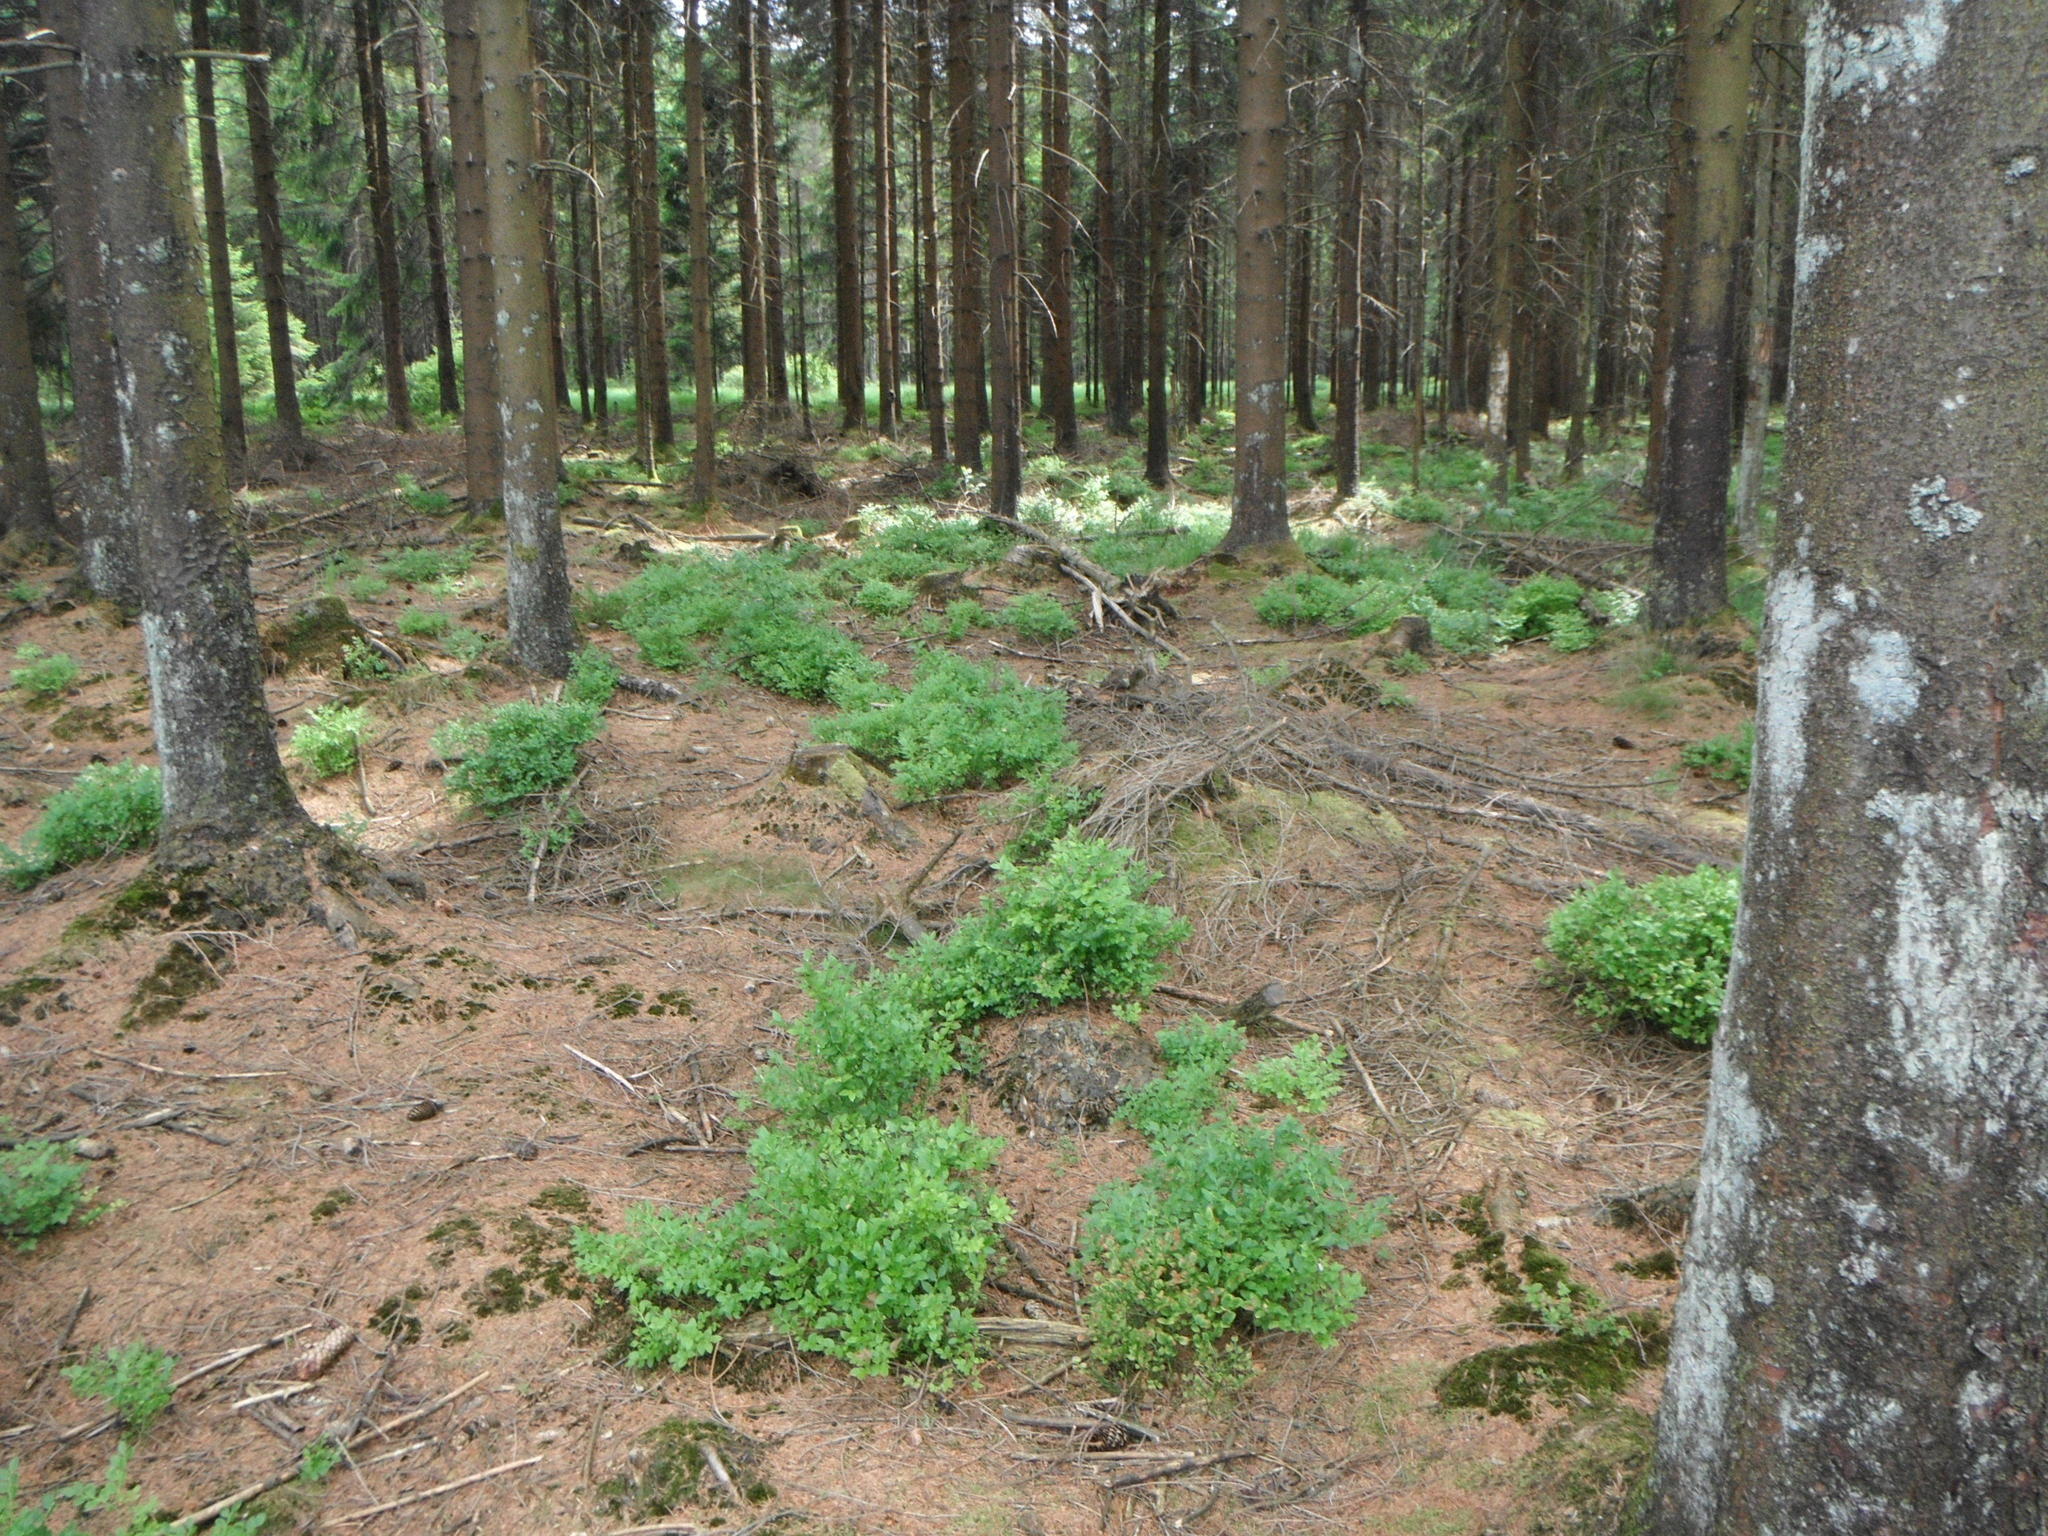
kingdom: Plantae
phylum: Tracheophyta
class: Magnoliopsida
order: Ericales
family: Ericaceae
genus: Vaccinium
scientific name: Vaccinium myrtillus
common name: Bilberry
